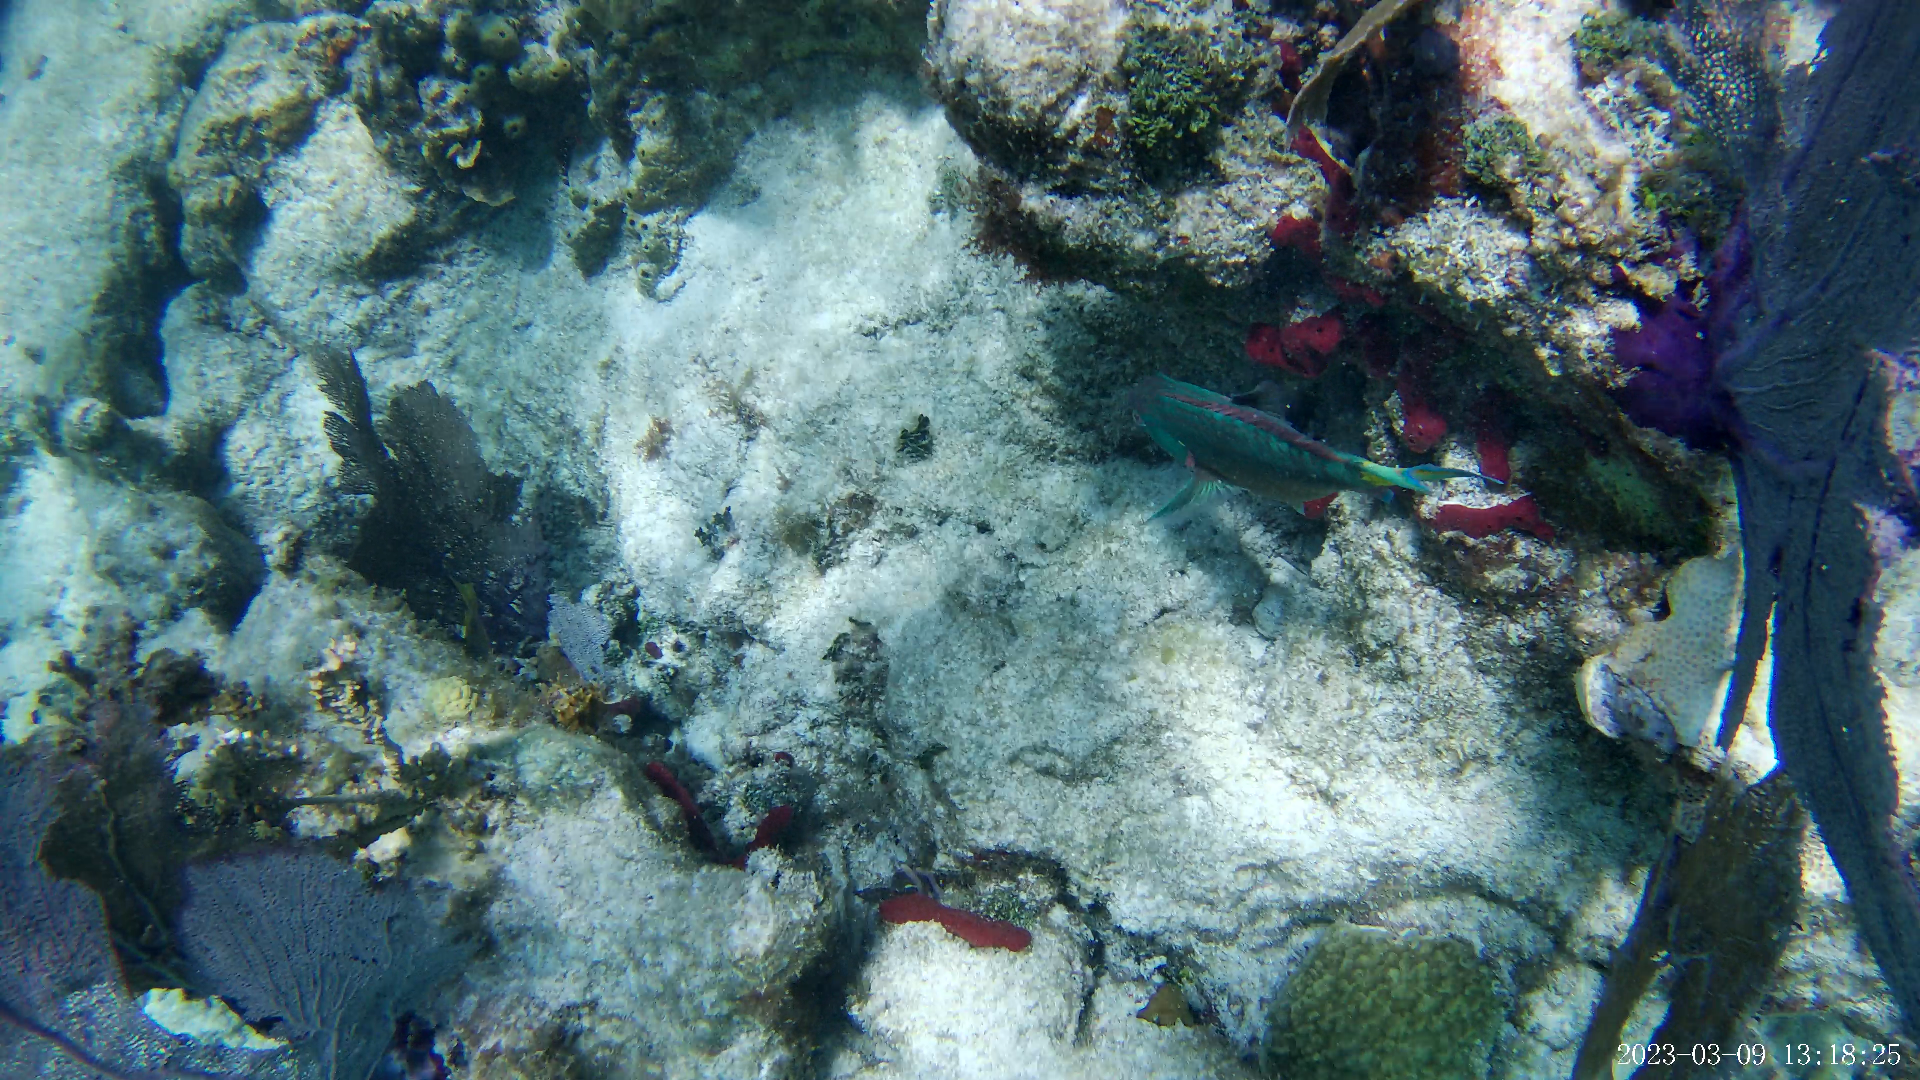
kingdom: Animalia
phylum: Chordata
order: Perciformes
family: Scaridae
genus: Sparisoma
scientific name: Sparisoma viride
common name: Stoplight parrotfish
